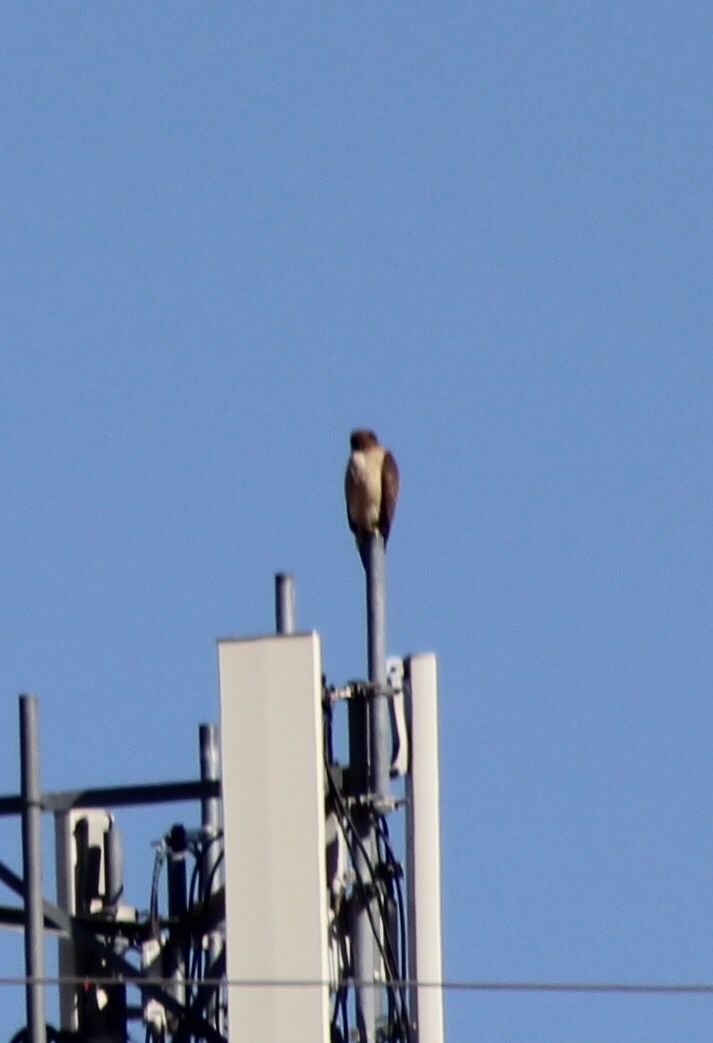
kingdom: Animalia
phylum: Chordata
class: Aves
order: Accipitriformes
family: Accipitridae
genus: Buteo
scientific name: Buteo jamaicensis
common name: Red-tailed hawk
